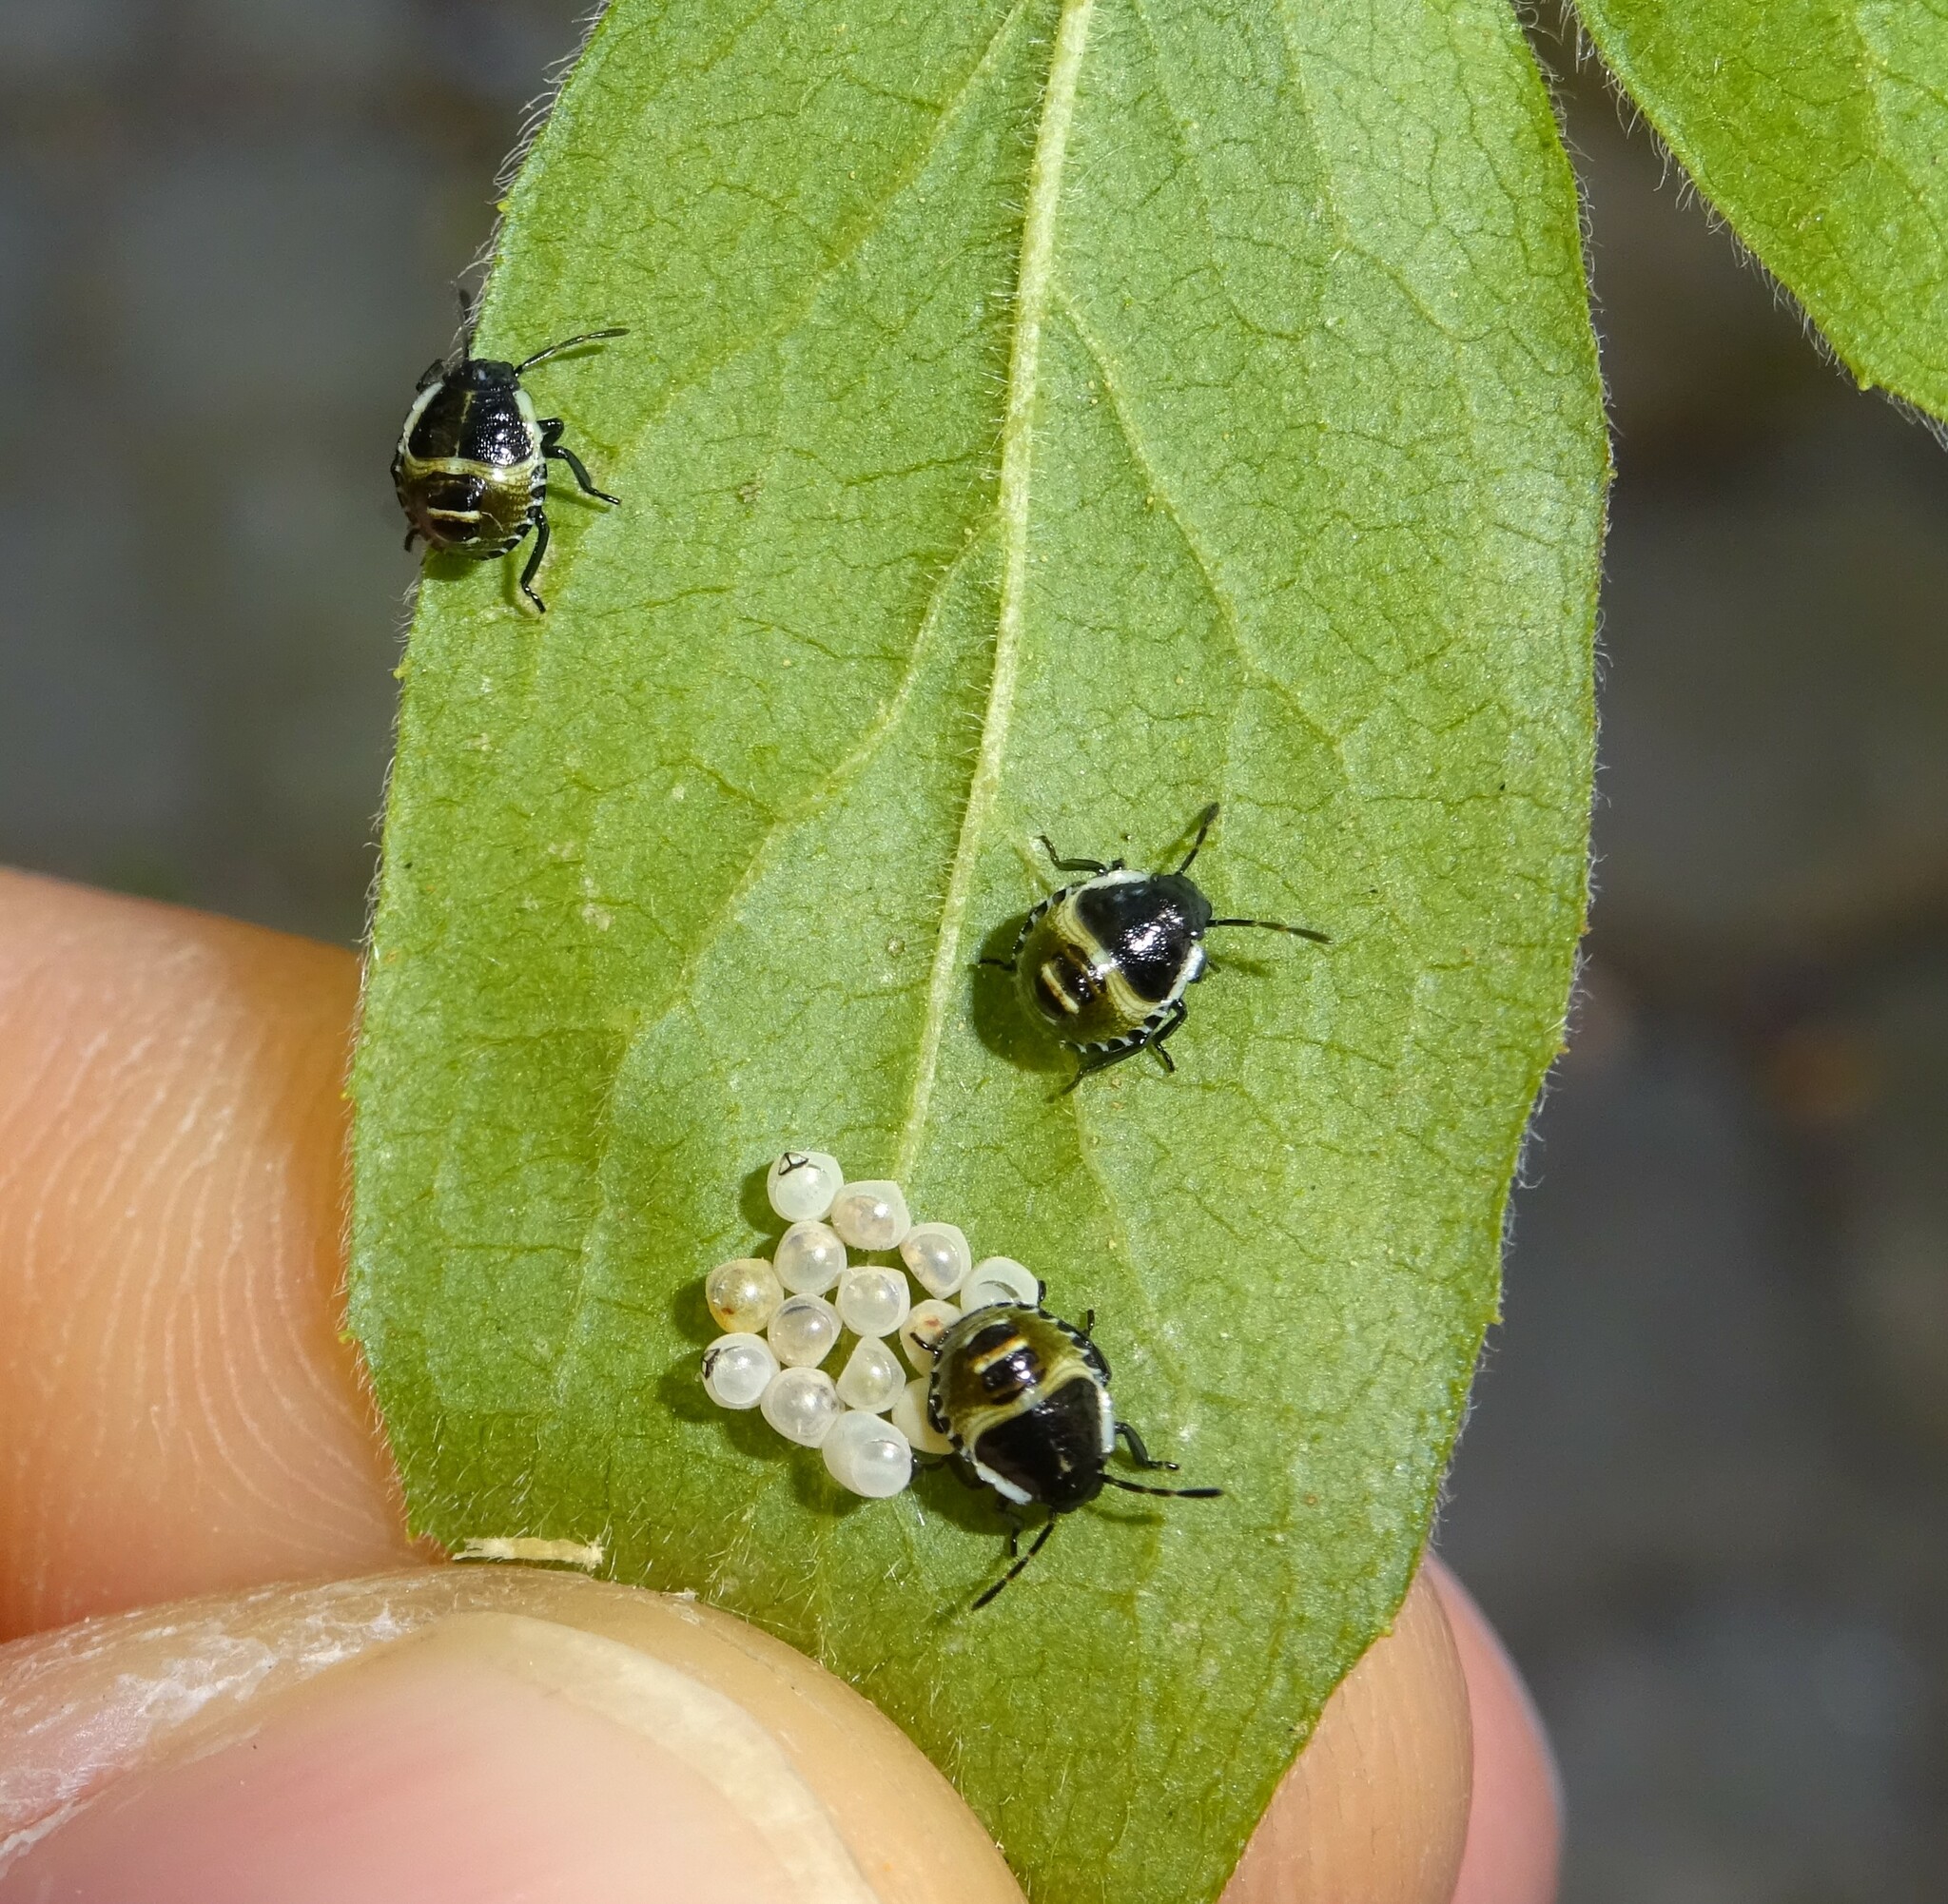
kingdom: Animalia
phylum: Arthropoda
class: Insecta
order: Hemiptera
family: Pentatomidae
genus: Palomena
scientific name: Palomena prasina
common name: Green shieldbug
